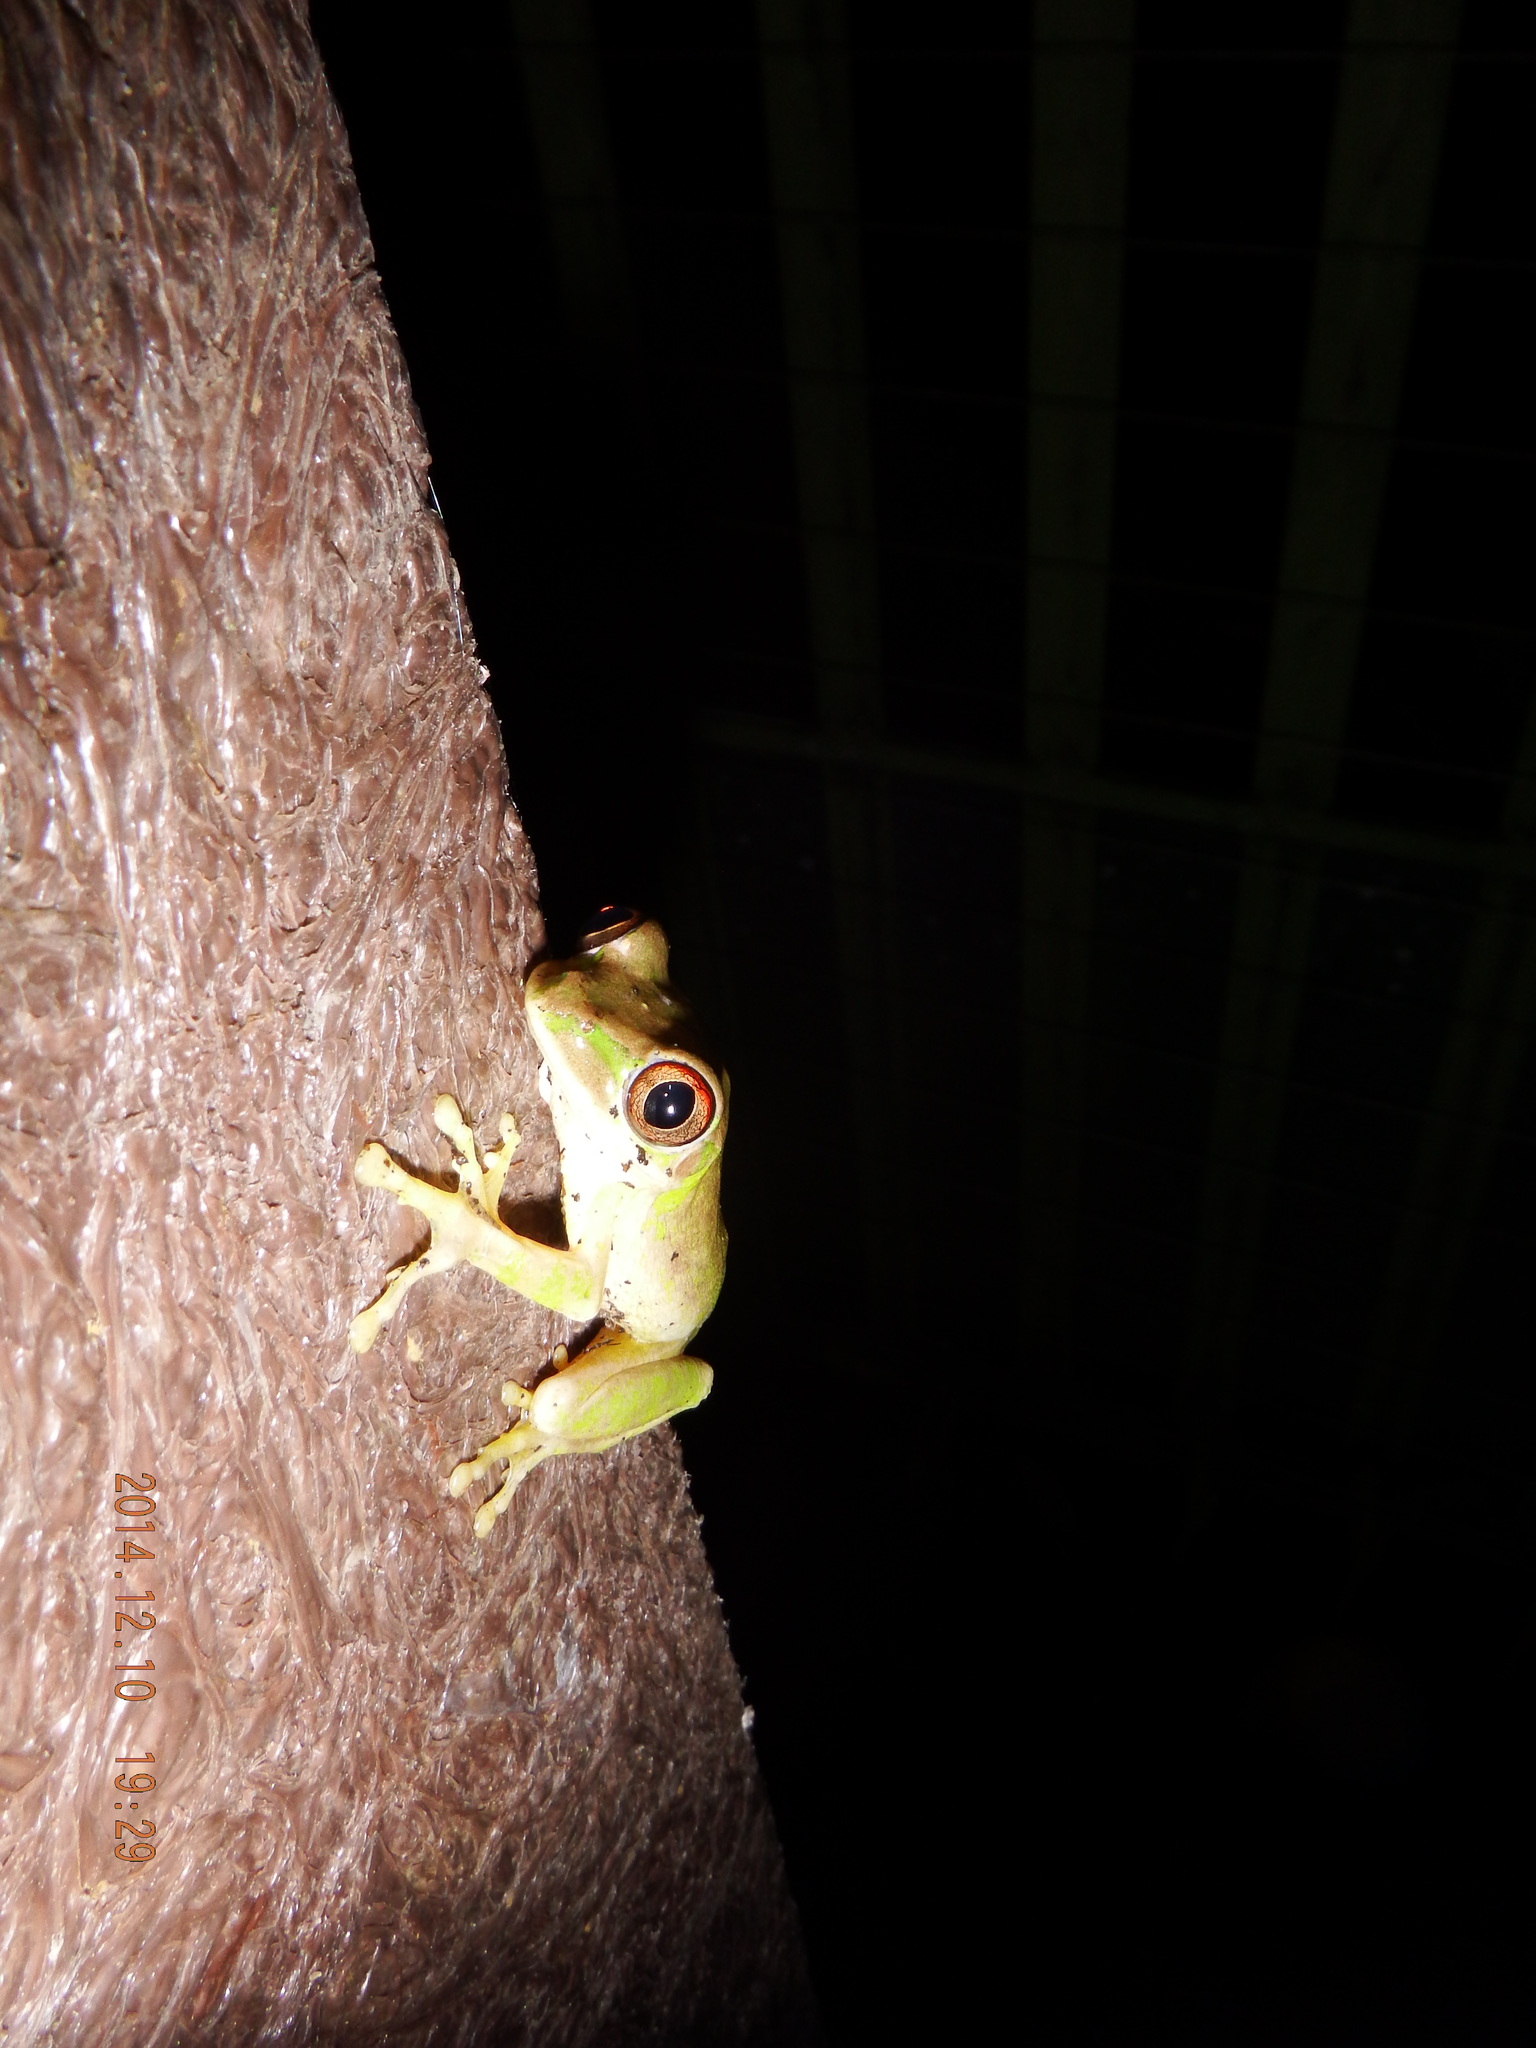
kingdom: Animalia
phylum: Chordata
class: Amphibia
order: Anura
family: Arthroleptidae
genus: Leptopelis
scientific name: Leptopelis natalensis
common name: Natal tree frog
